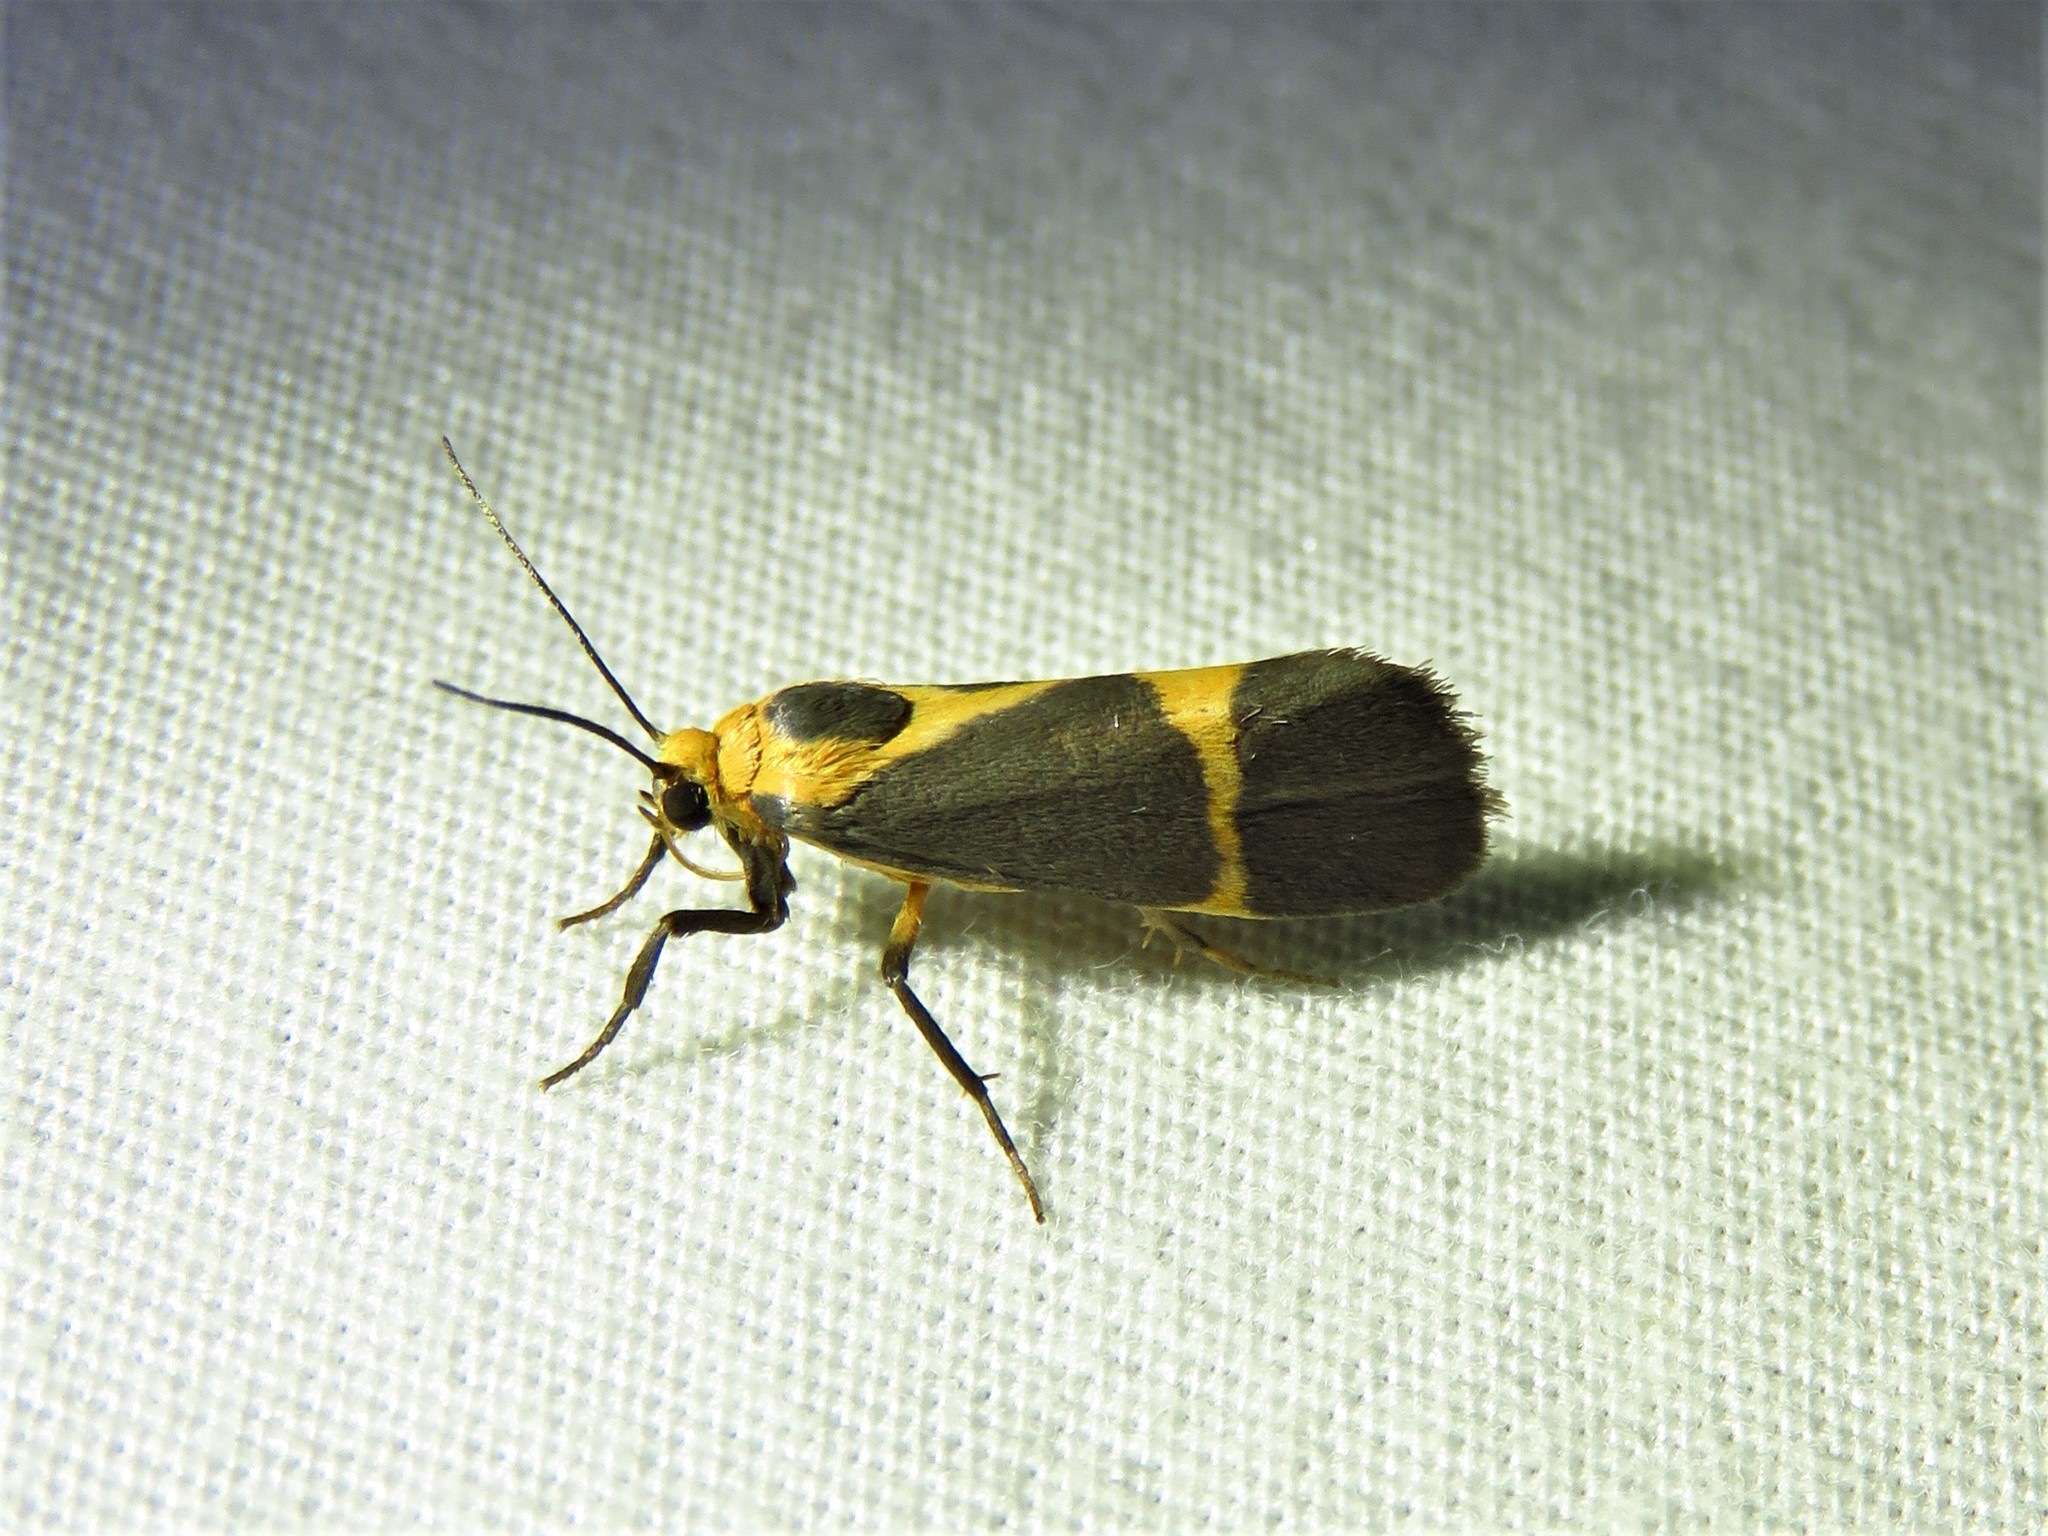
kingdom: Animalia
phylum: Arthropoda
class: Insecta
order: Lepidoptera
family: Erebidae
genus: Cisthene
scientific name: Cisthene tenuifascia
